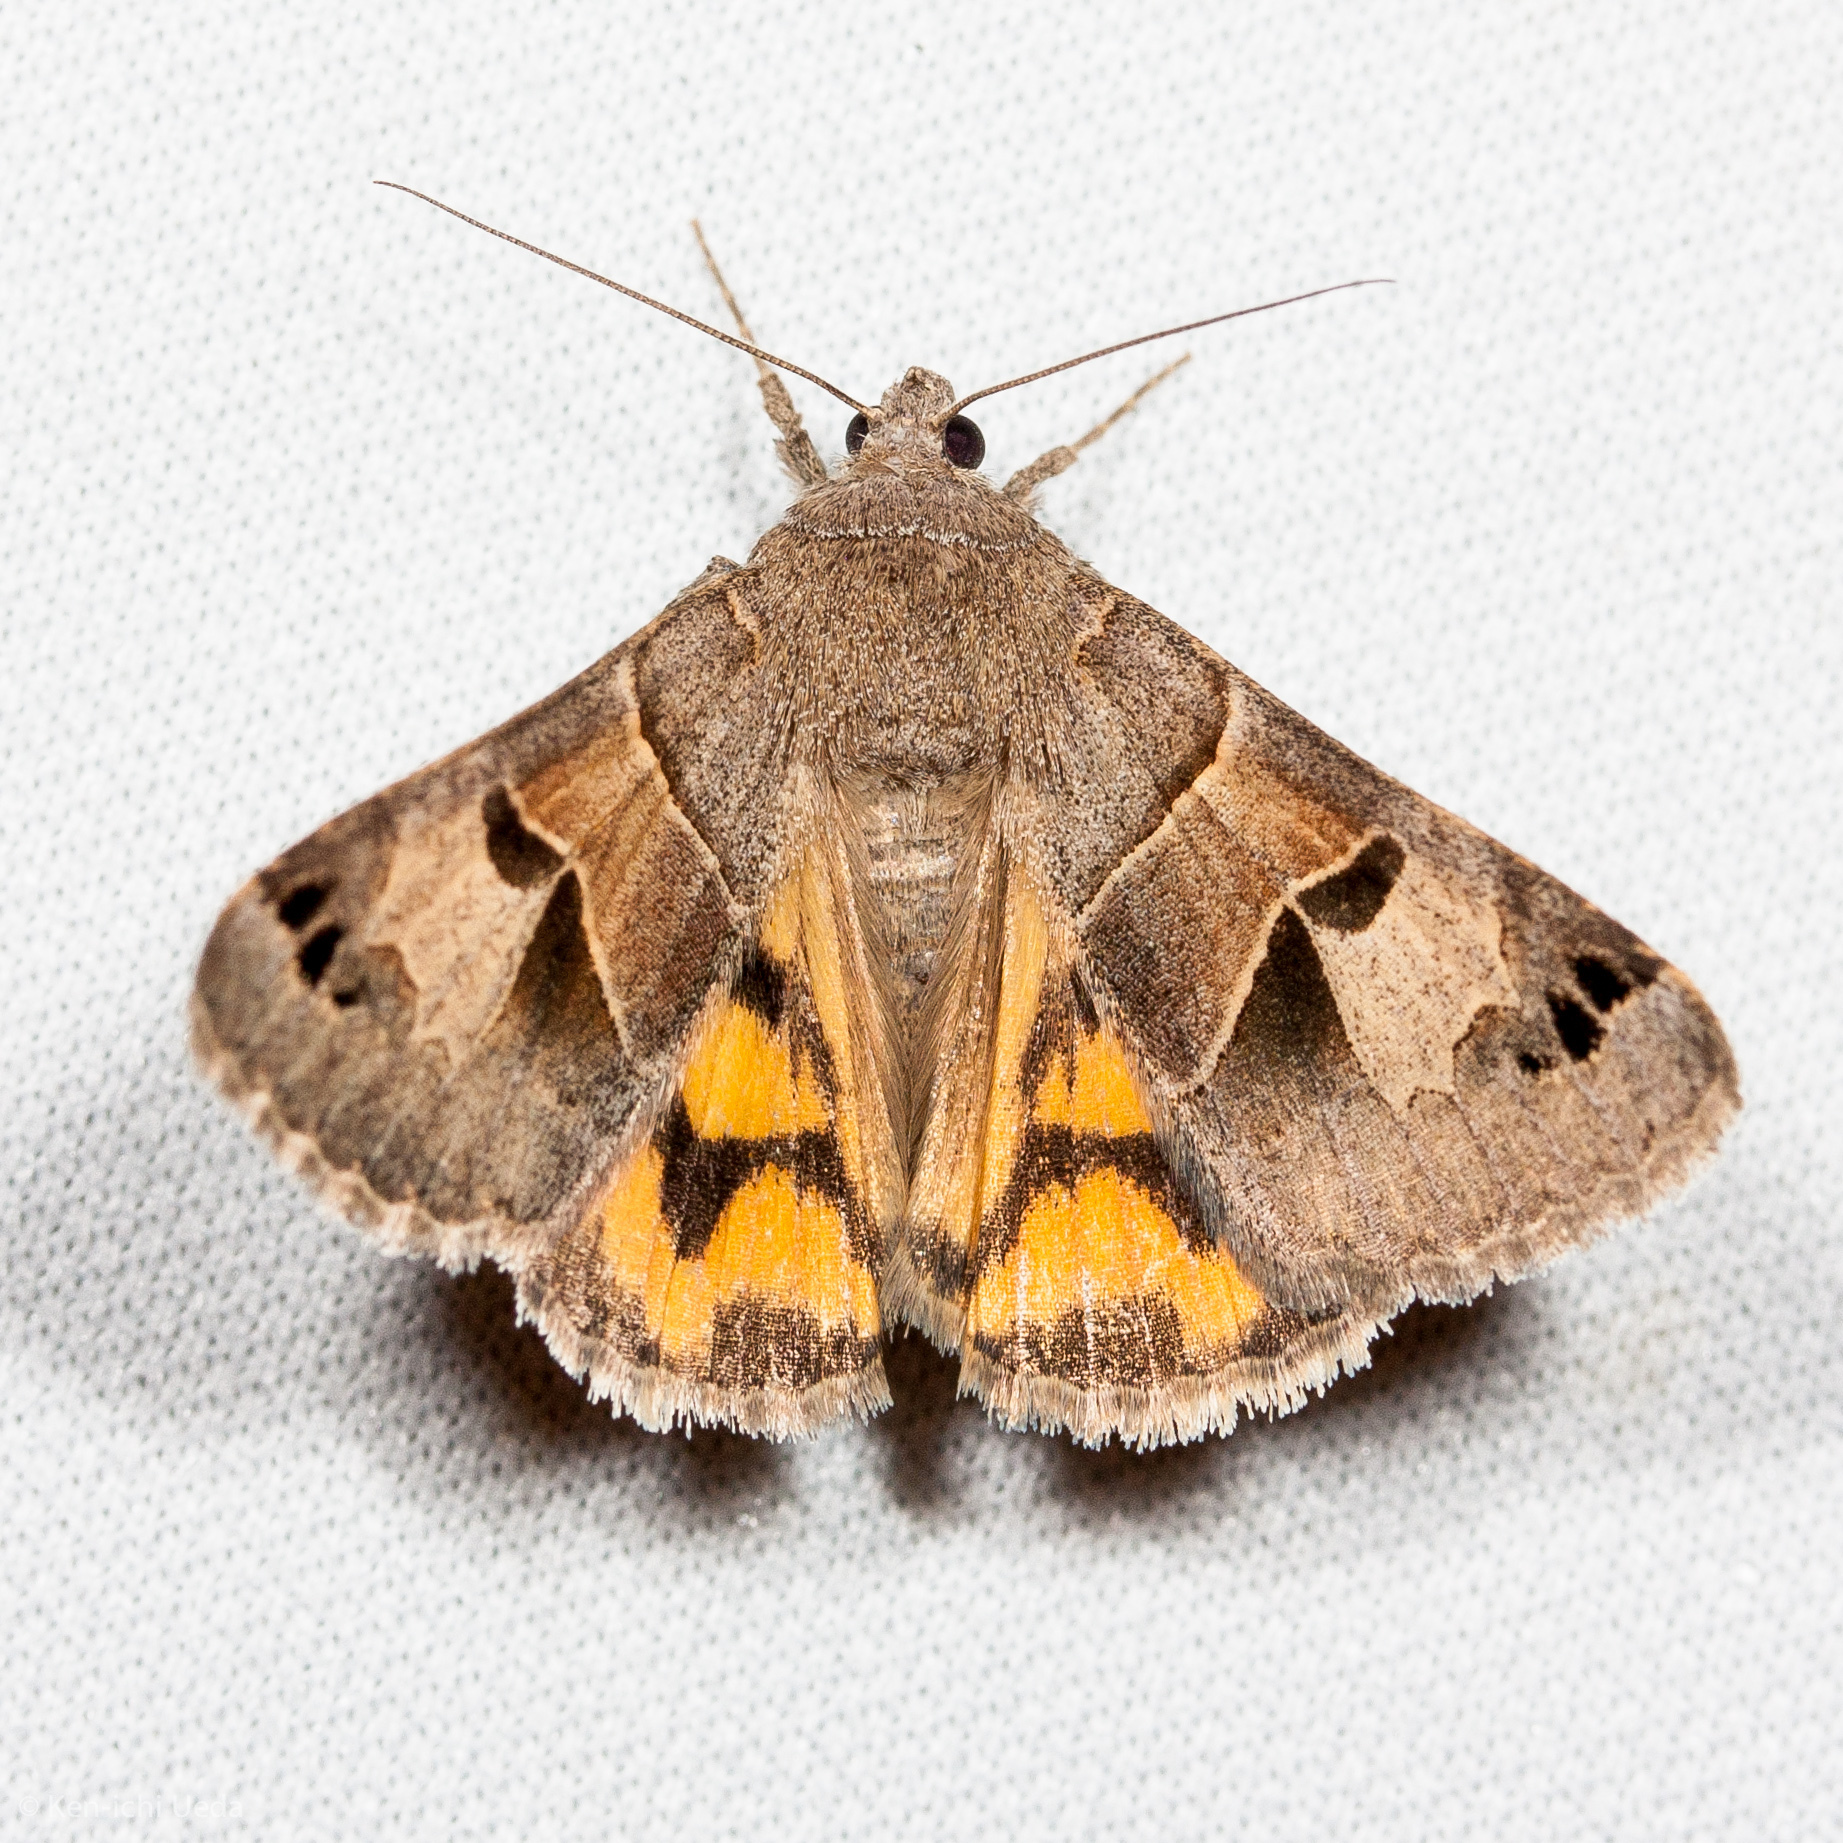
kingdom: Animalia
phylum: Arthropoda
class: Insecta
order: Lepidoptera
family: Erebidae
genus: Drasteria
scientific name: Drasteria edwardsii
